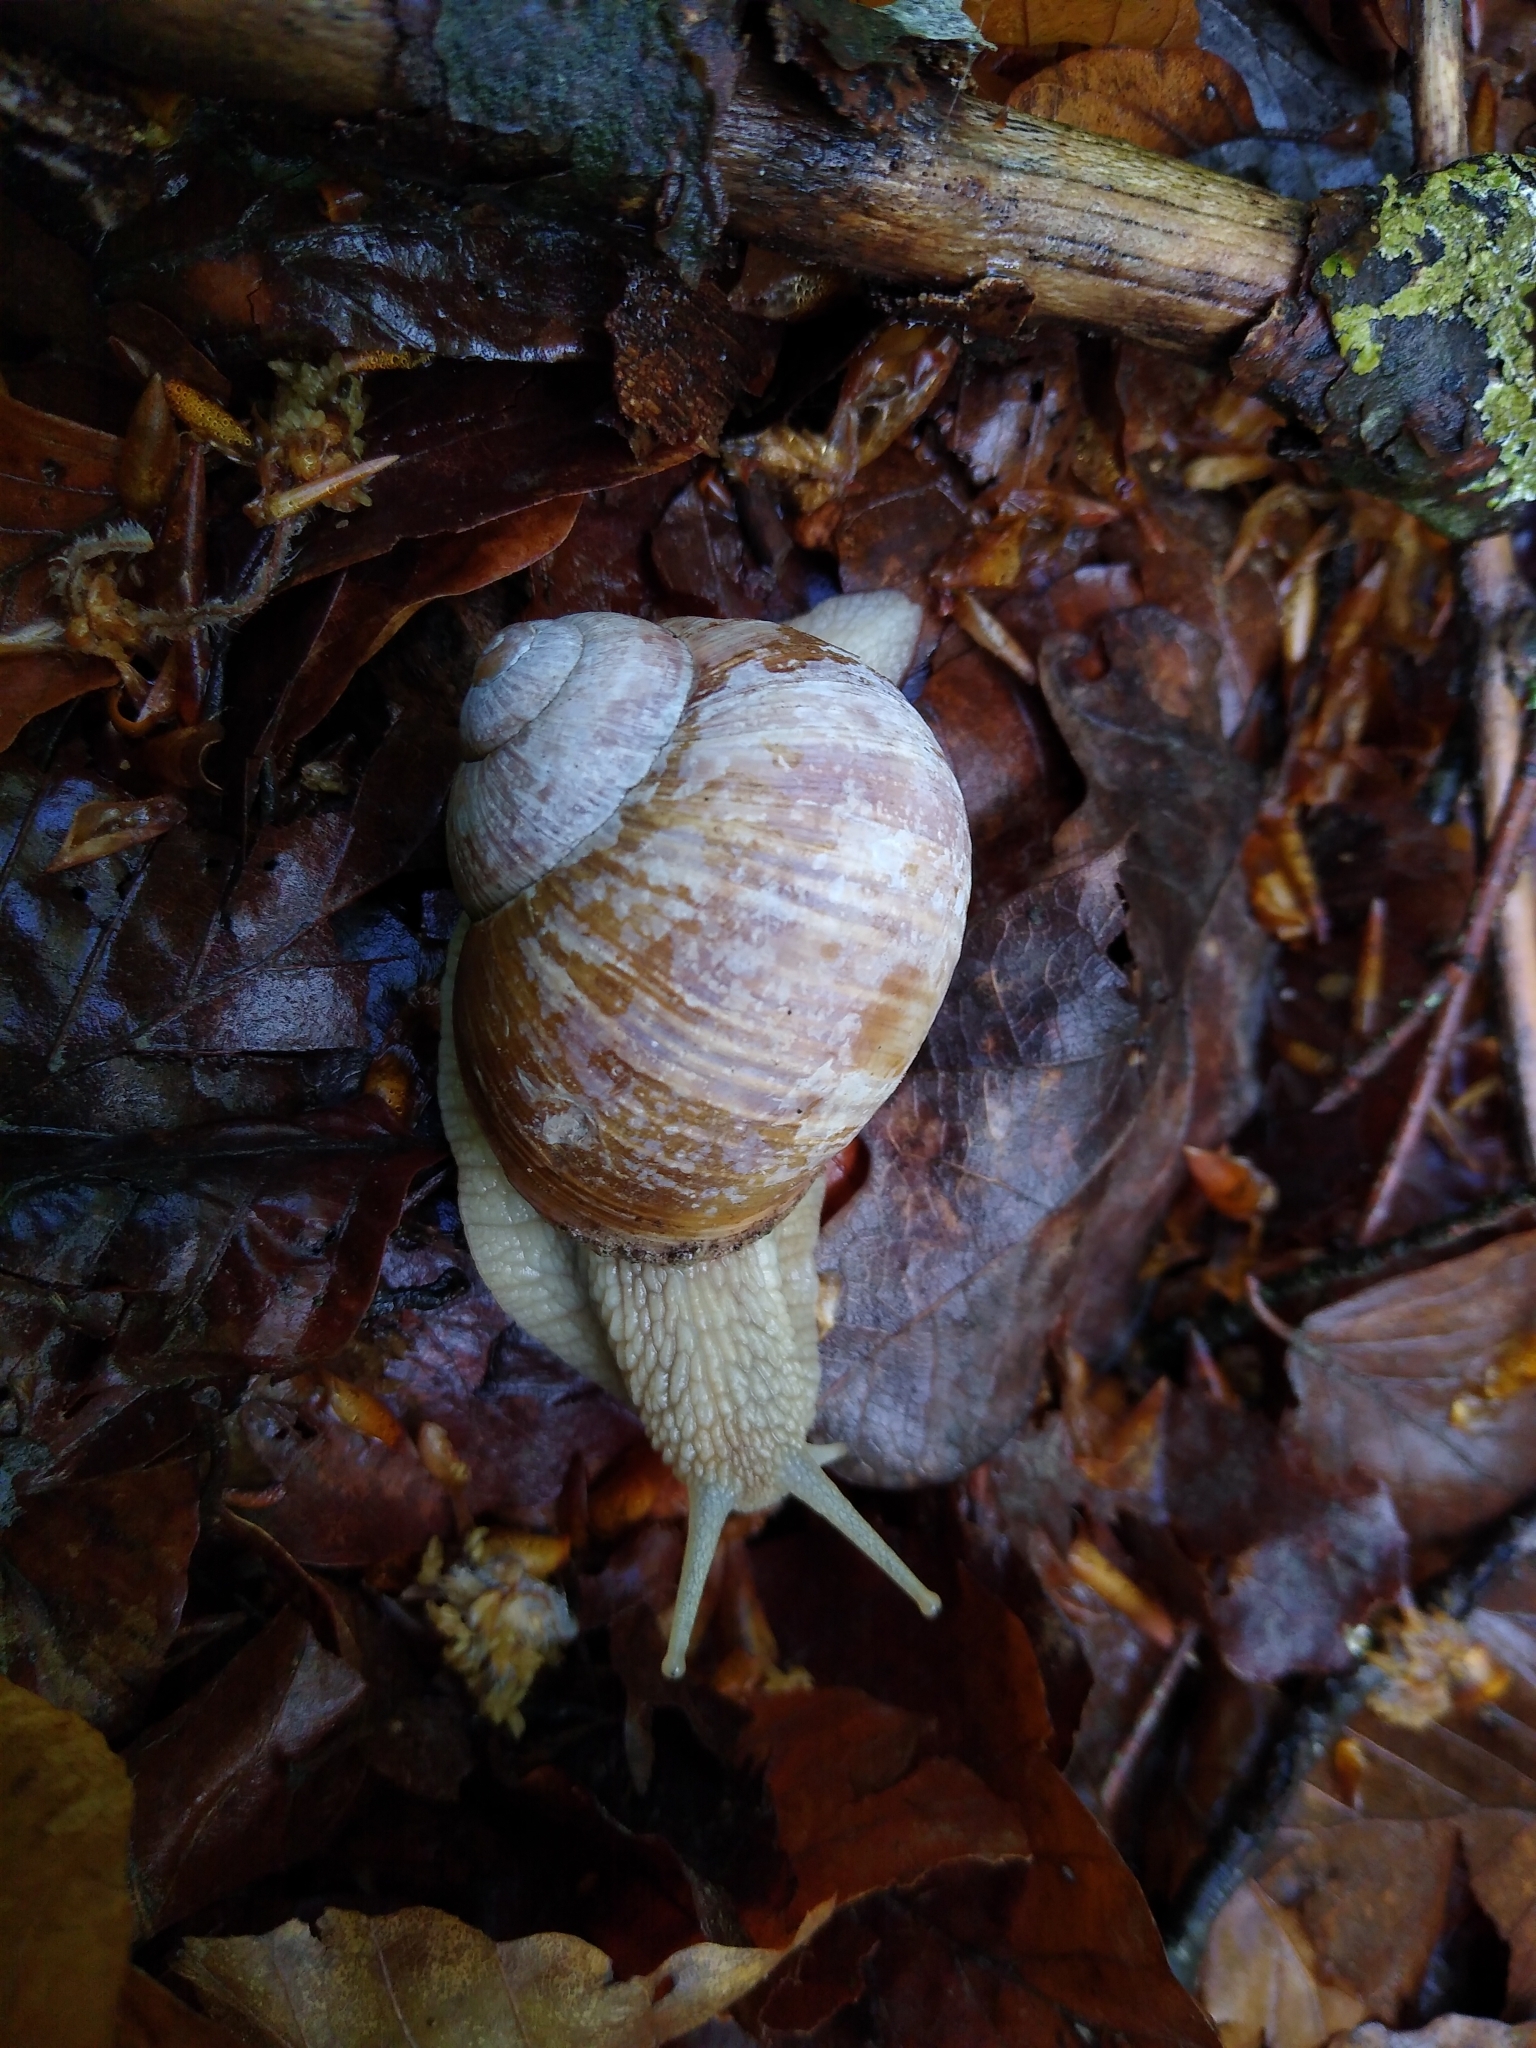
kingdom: Animalia
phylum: Mollusca
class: Gastropoda
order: Stylommatophora
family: Helicidae
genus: Helix
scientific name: Helix pomatia
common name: Roman snail
